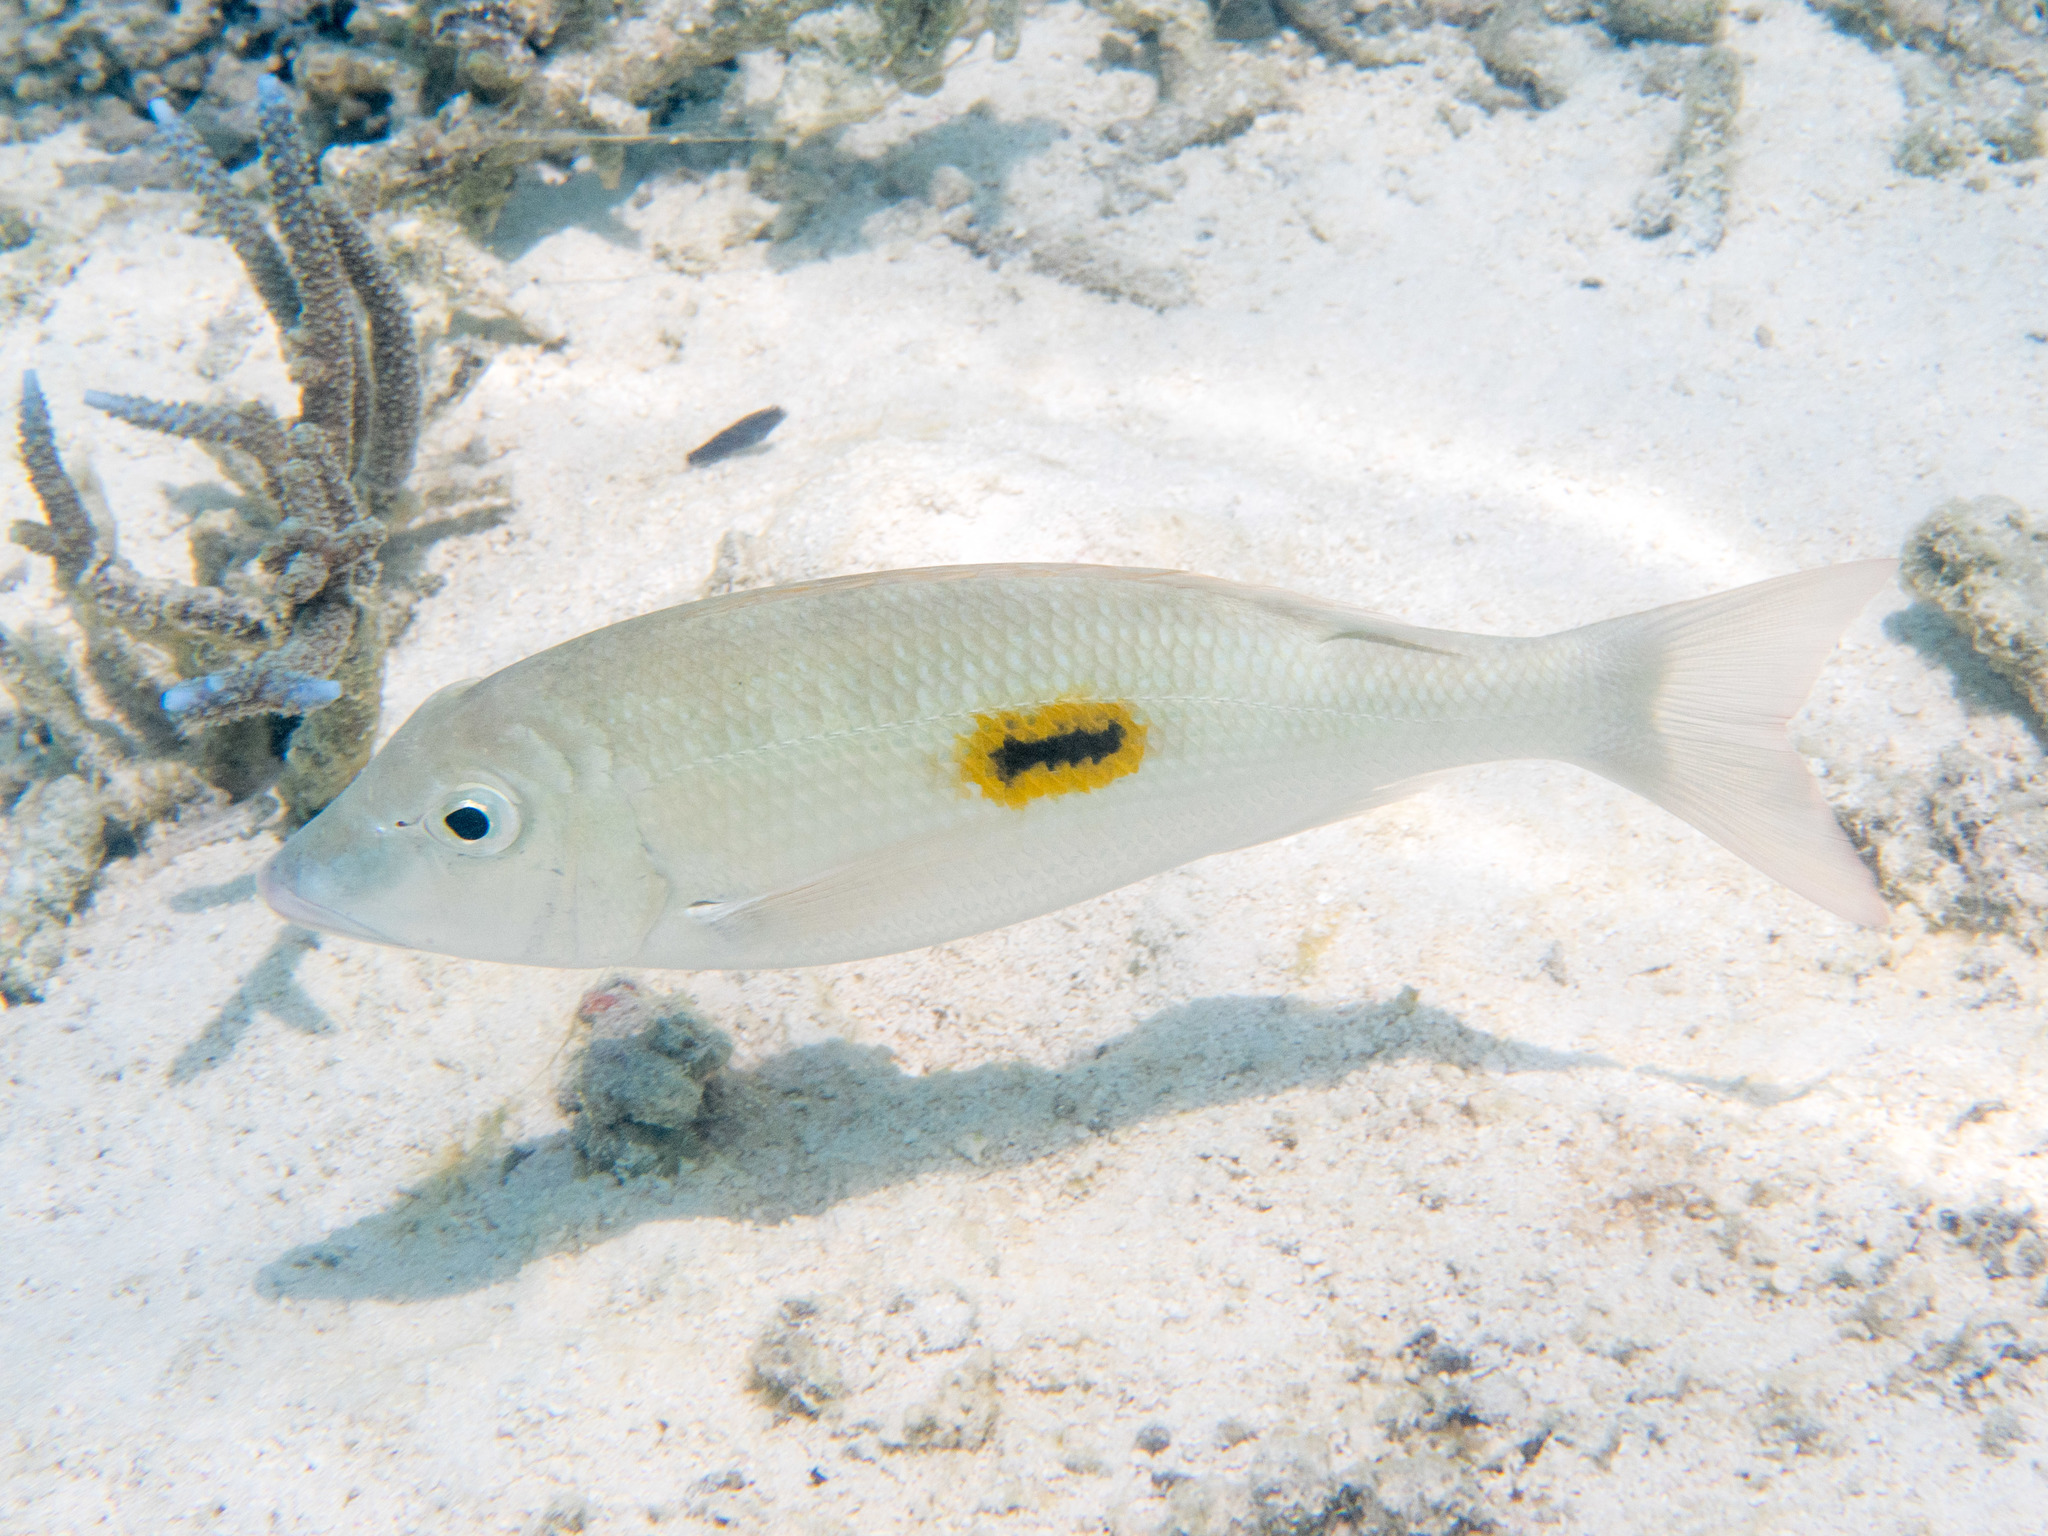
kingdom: Animalia
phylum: Chordata
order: Perciformes
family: Lethrinidae
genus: Lethrinus
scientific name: Lethrinus harak
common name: Blackspot emperor
